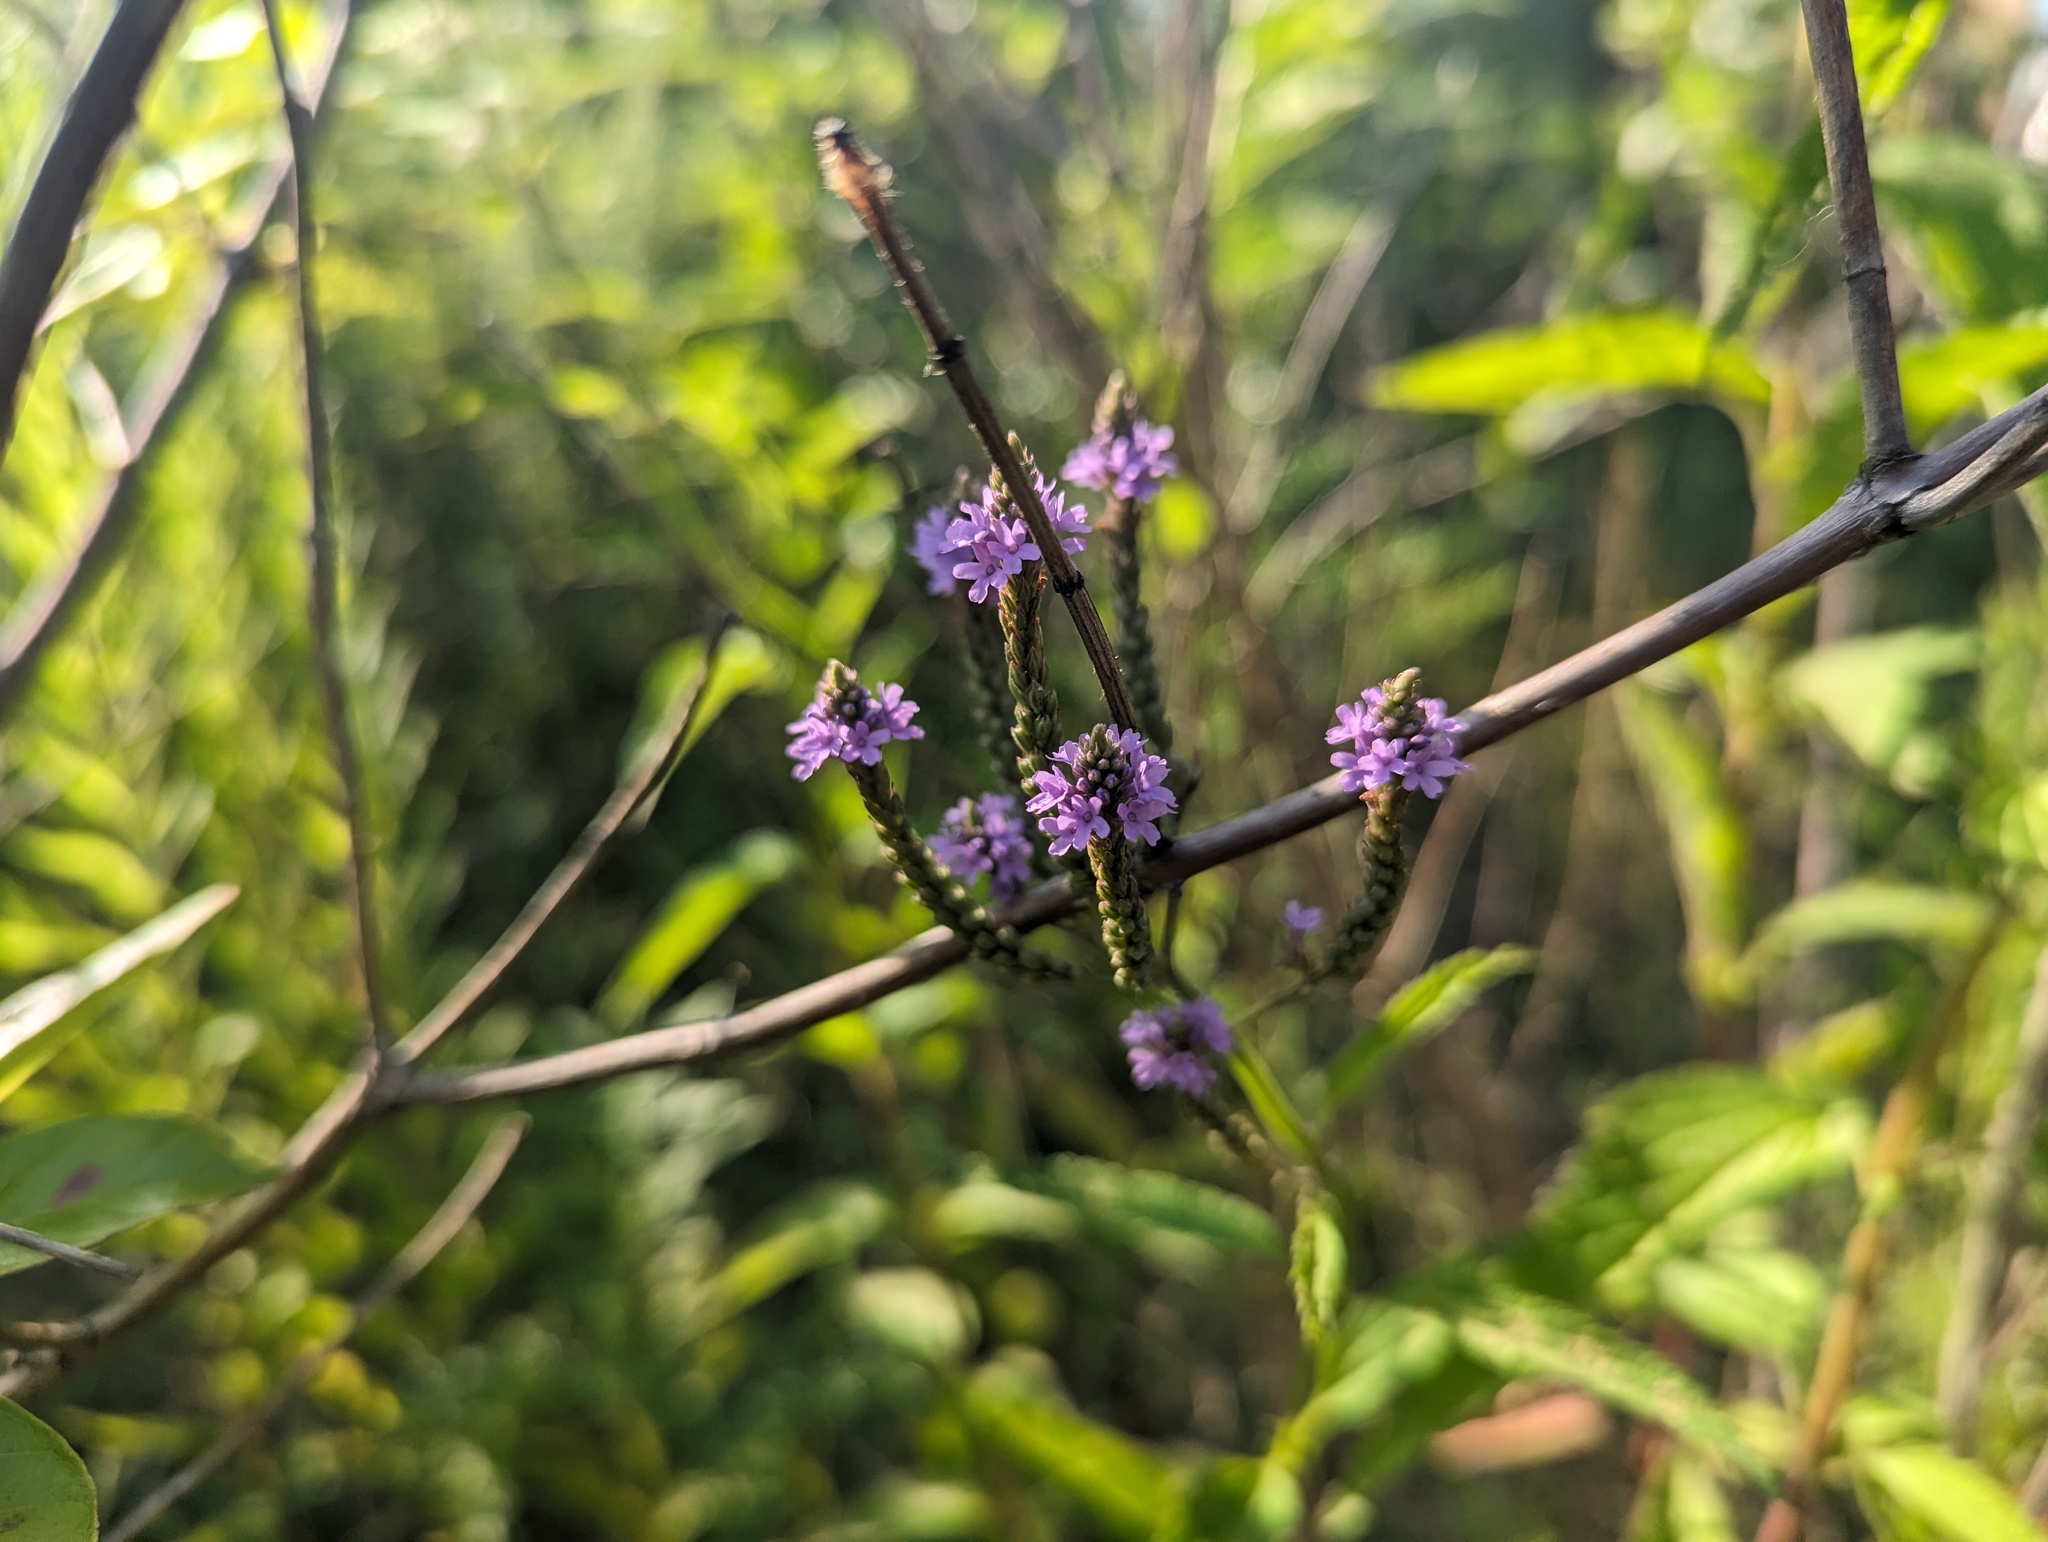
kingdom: Plantae
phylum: Tracheophyta
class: Magnoliopsida
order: Lamiales
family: Verbenaceae
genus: Verbena
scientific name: Verbena hastata
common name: American blue vervain
